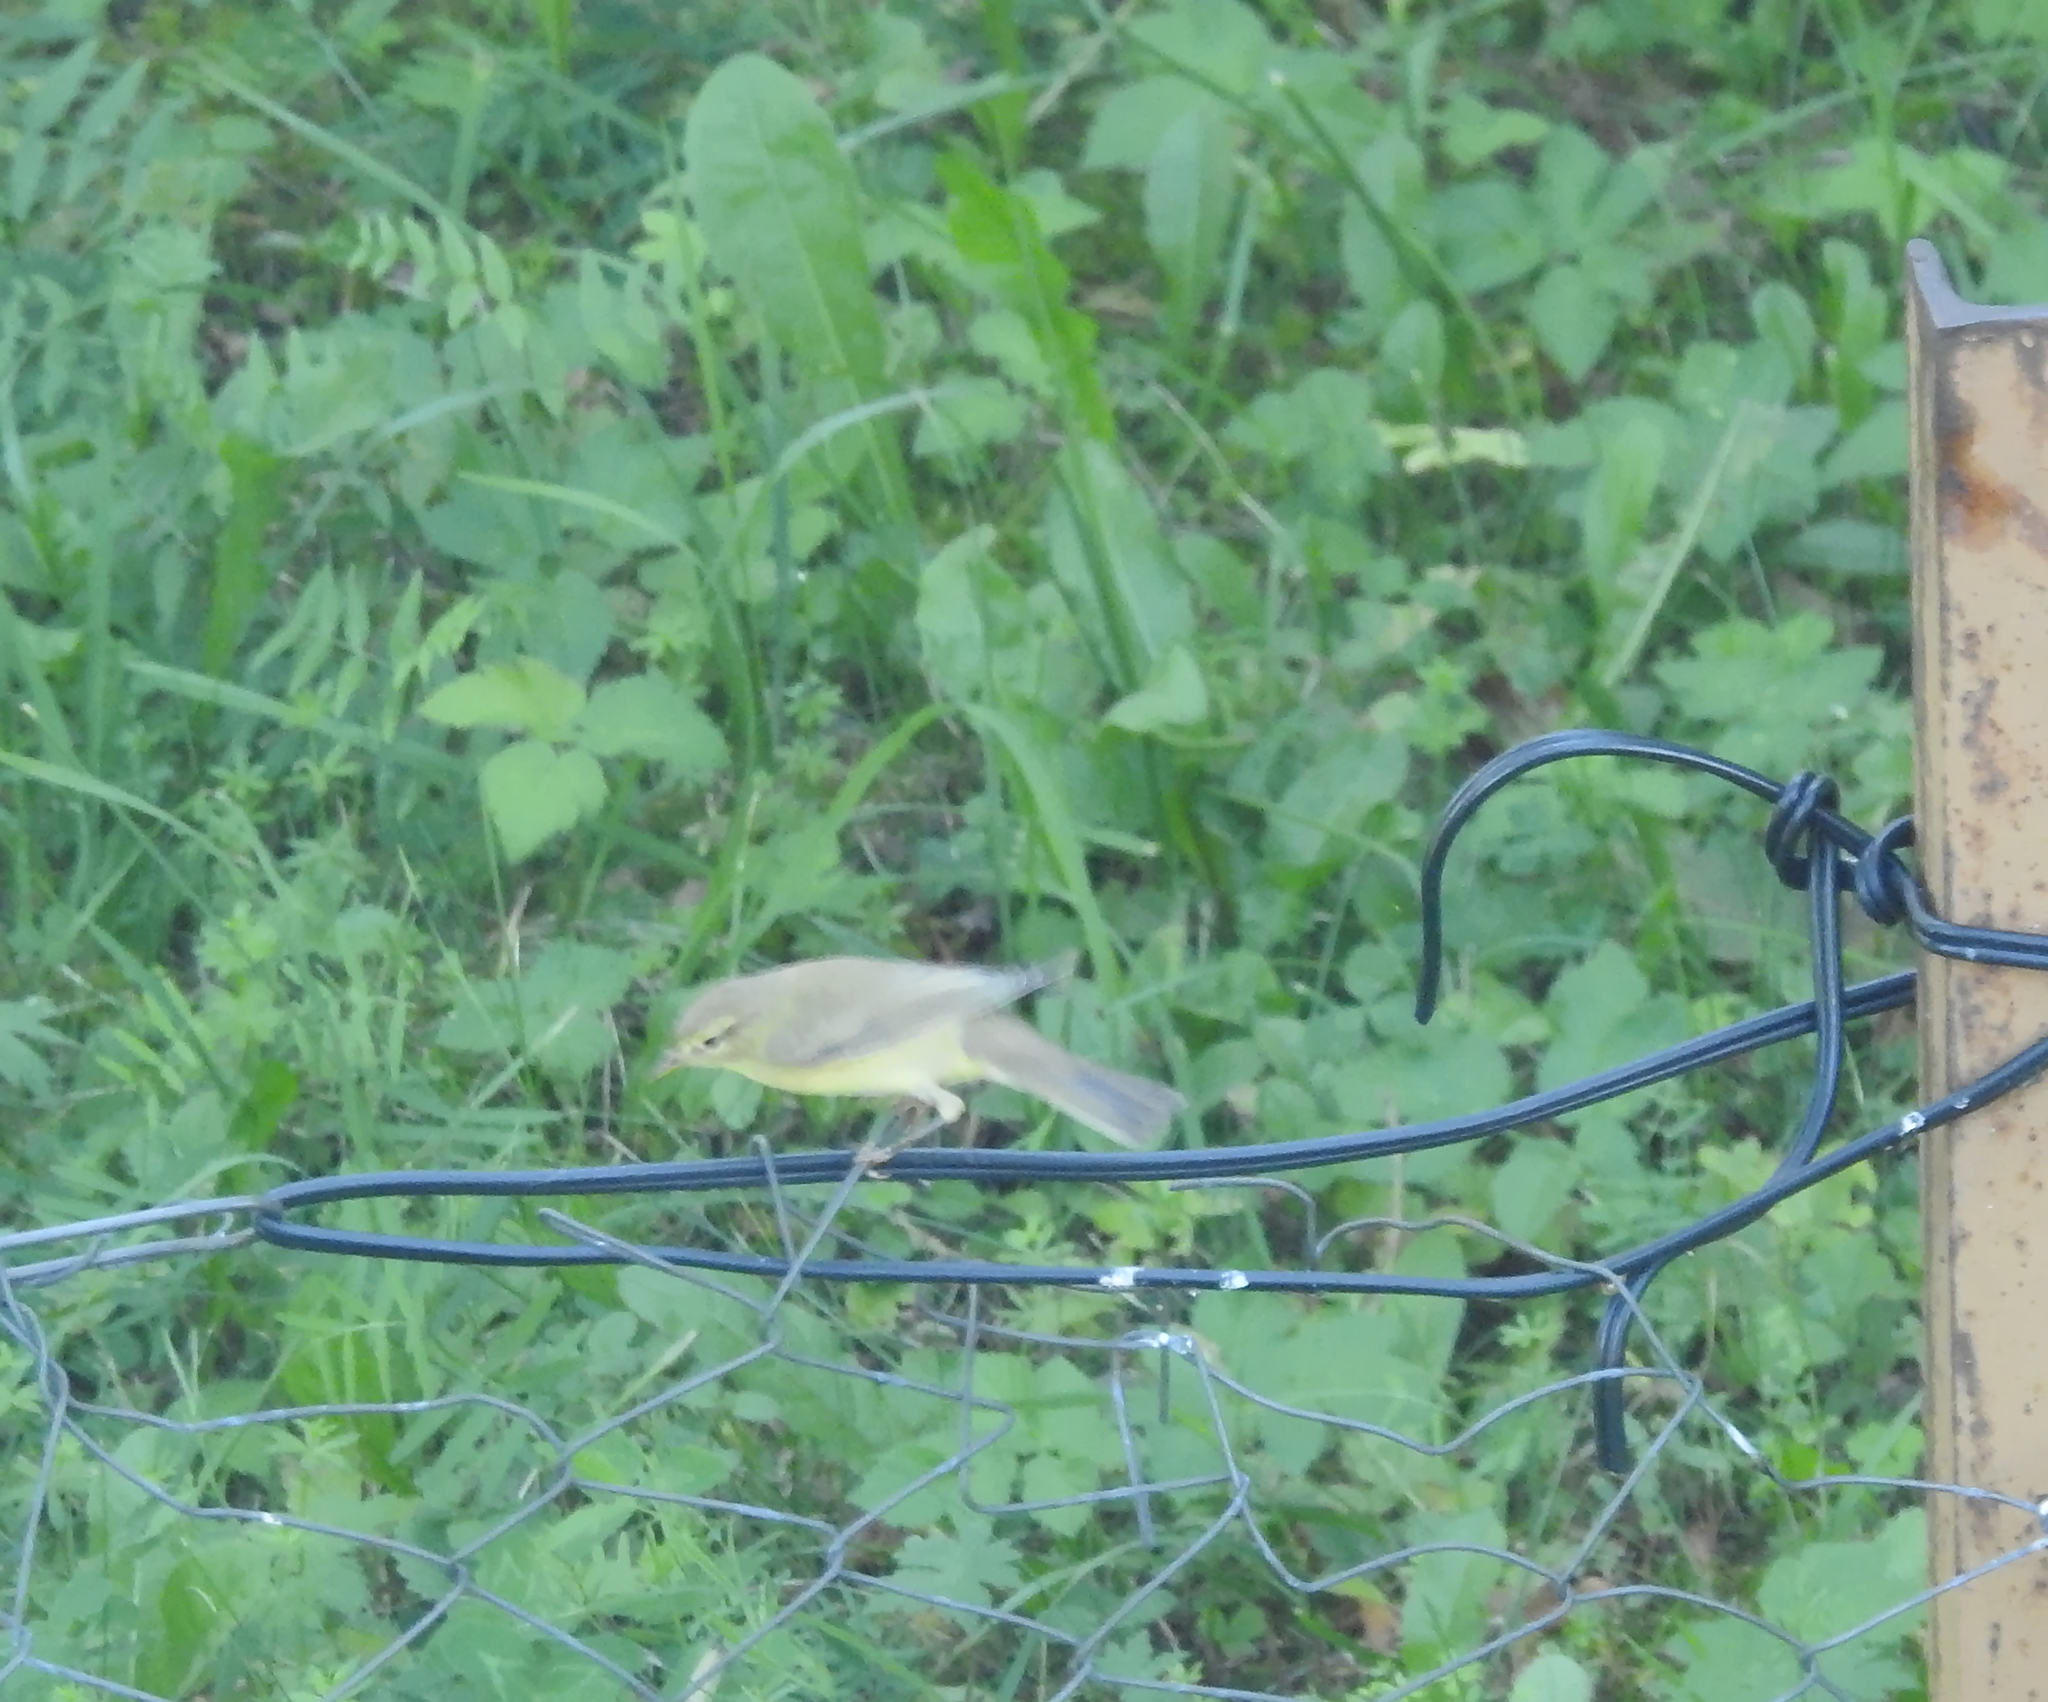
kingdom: Animalia
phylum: Chordata
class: Aves
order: Passeriformes
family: Phylloscopidae
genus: Phylloscopus
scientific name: Phylloscopus trochilus
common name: Willow warbler
